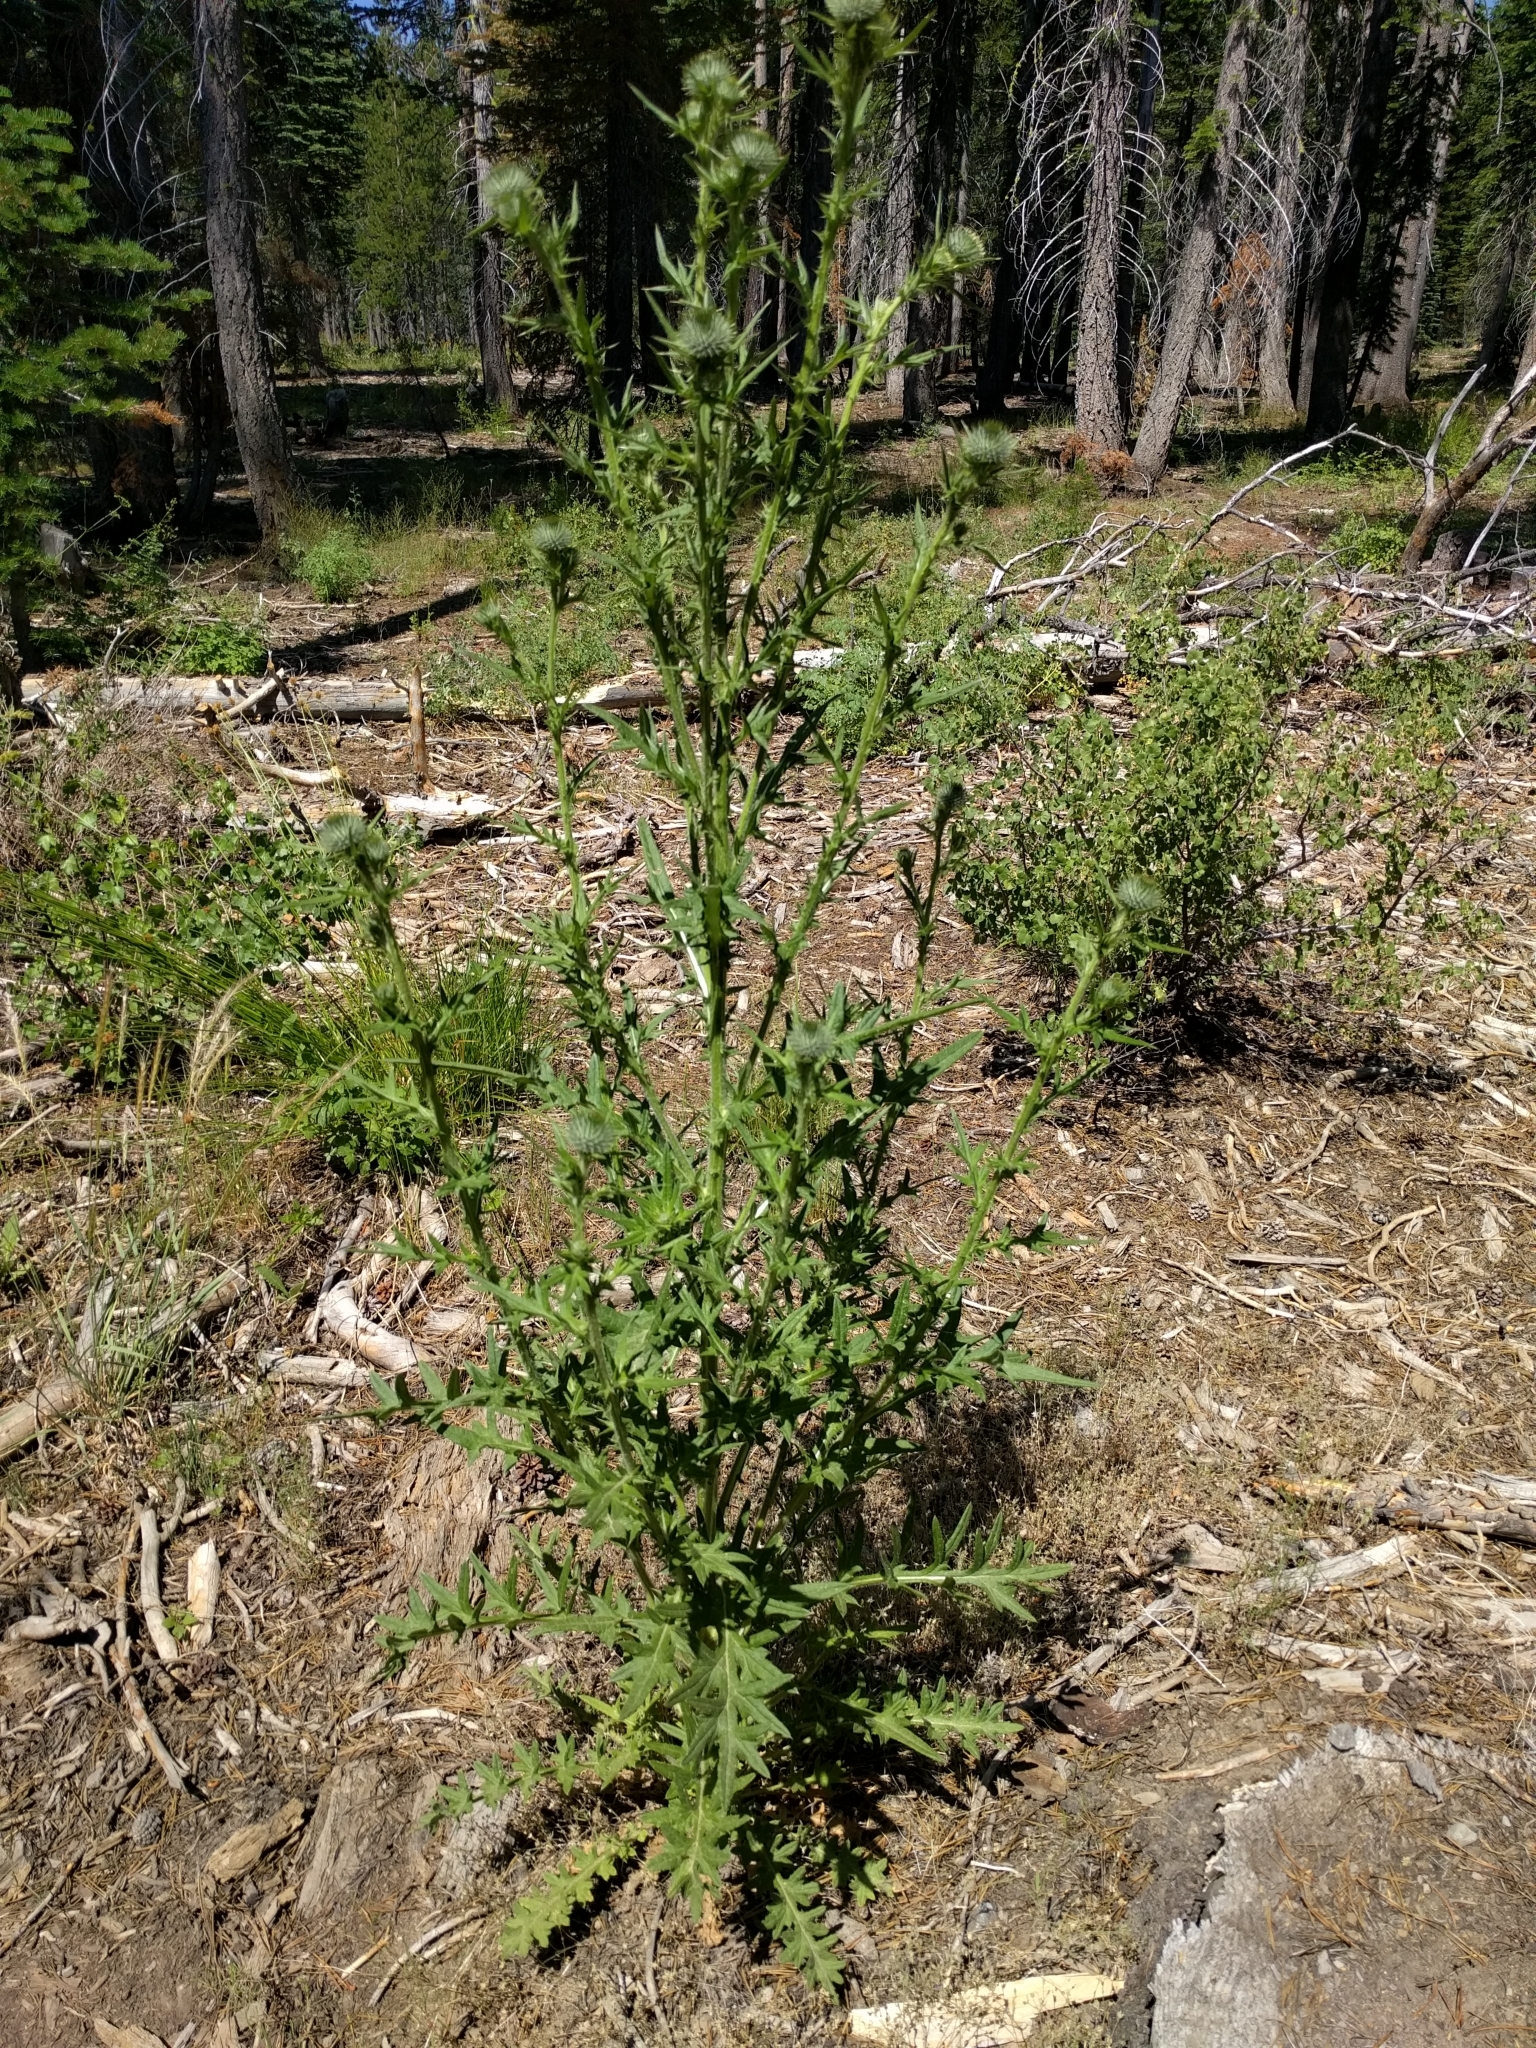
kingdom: Plantae
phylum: Tracheophyta
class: Magnoliopsida
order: Asterales
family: Asteraceae
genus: Cirsium
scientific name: Cirsium vulgare
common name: Bull thistle
